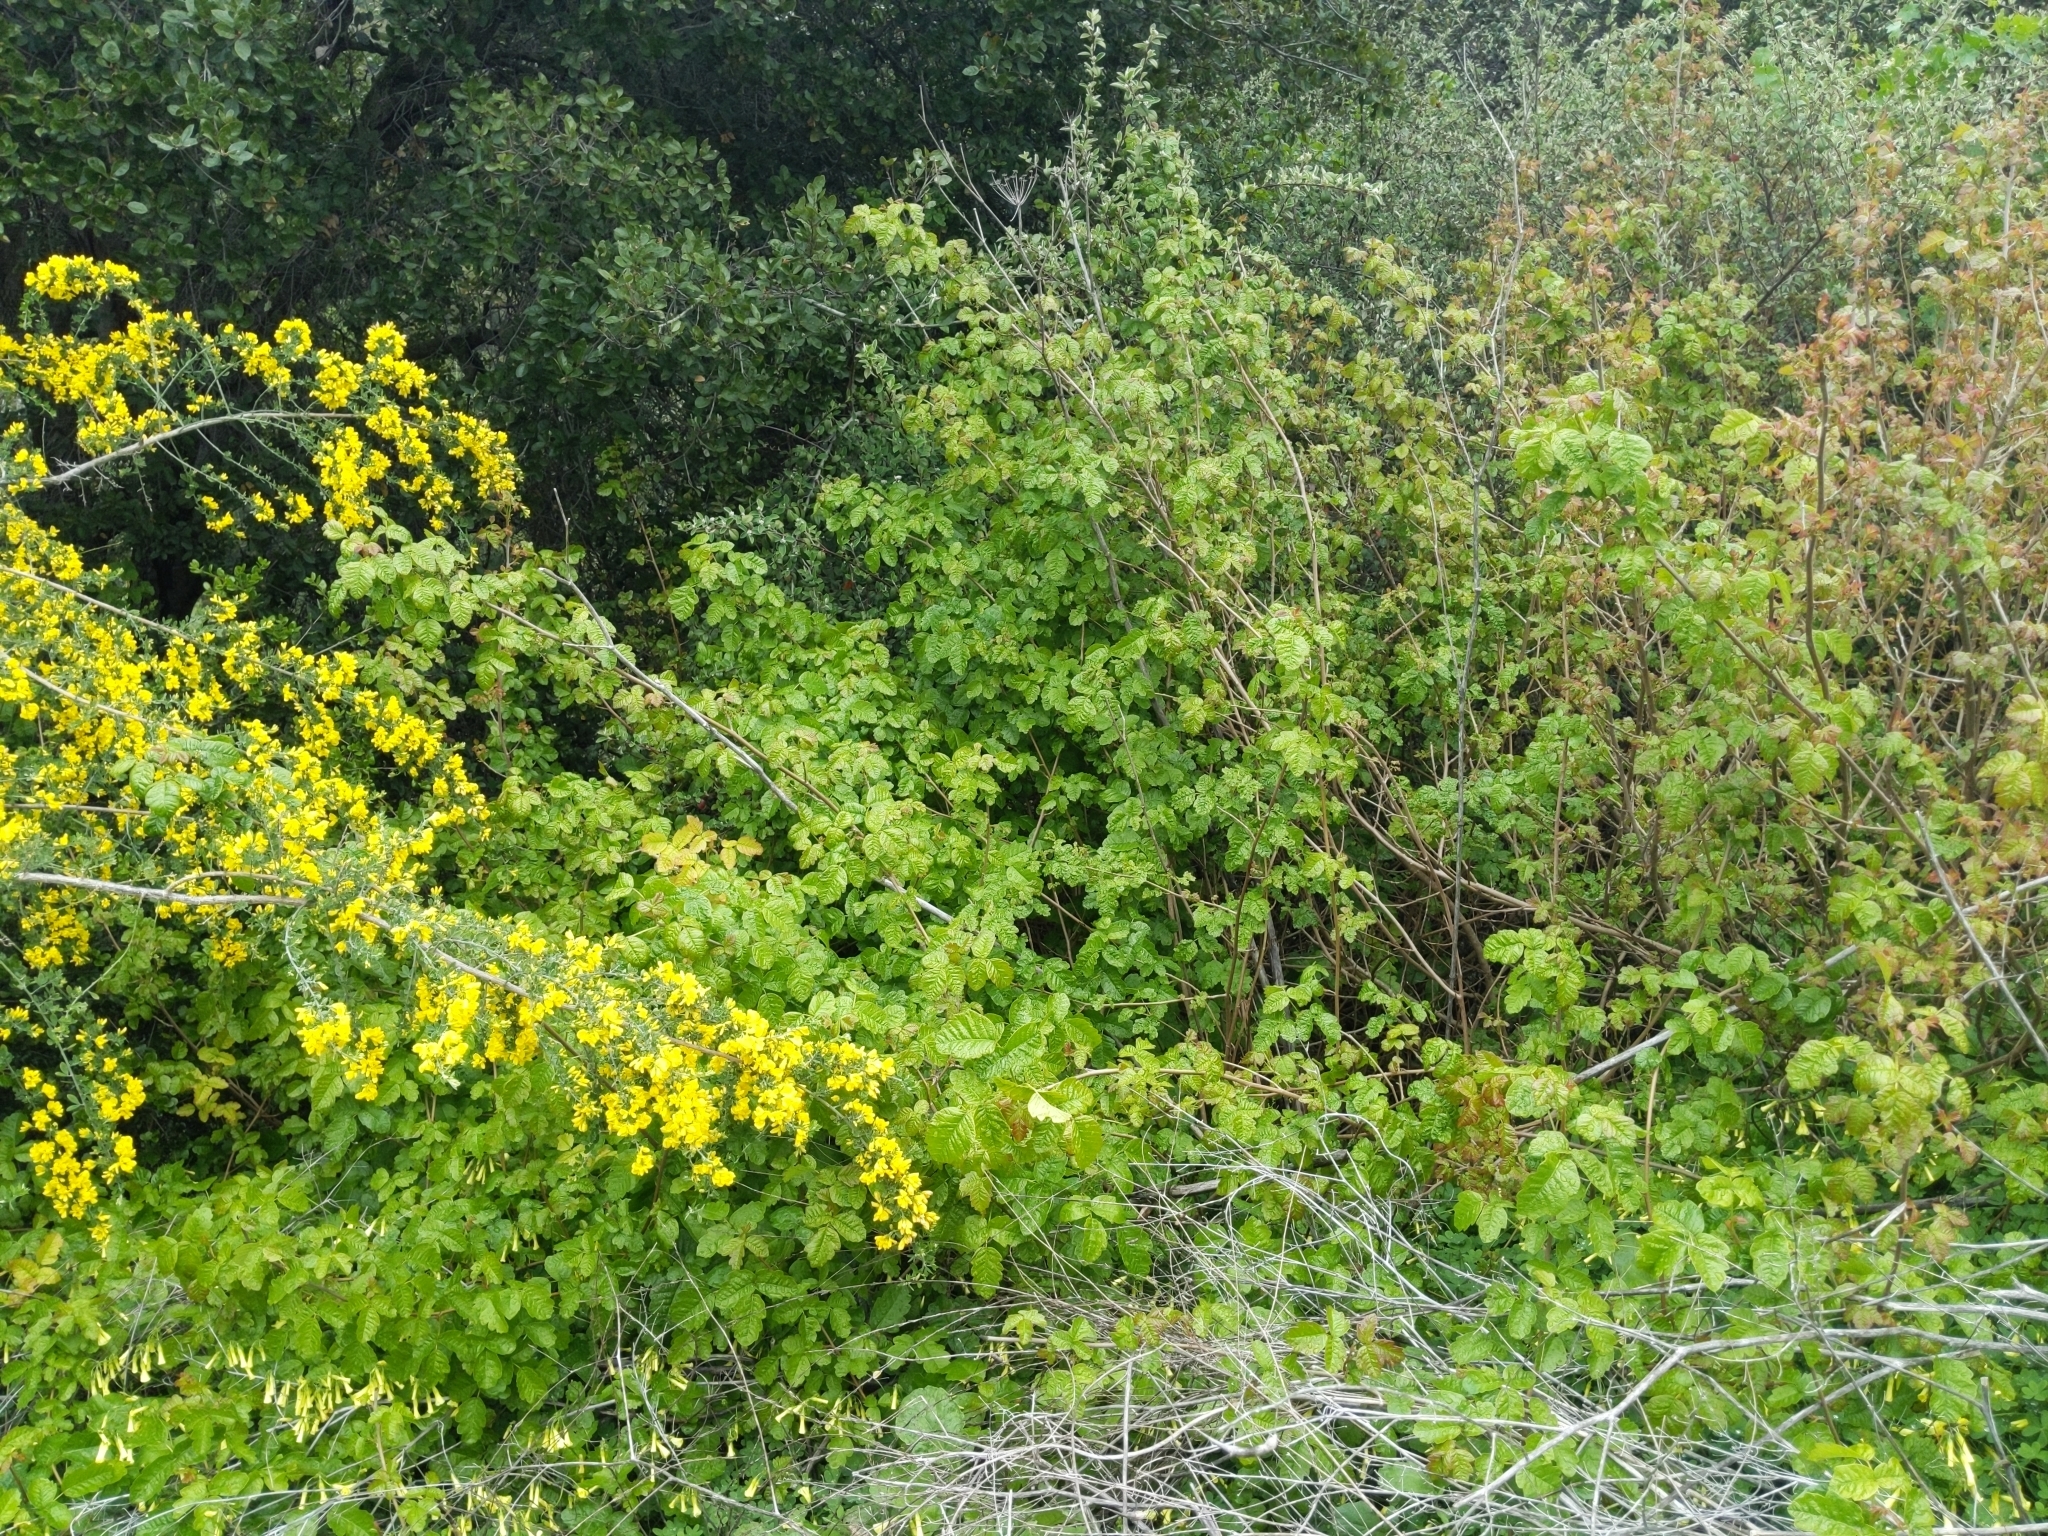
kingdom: Plantae
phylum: Tracheophyta
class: Magnoliopsida
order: Sapindales
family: Anacardiaceae
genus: Toxicodendron
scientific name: Toxicodendron diversilobum
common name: Pacific poison-oak
